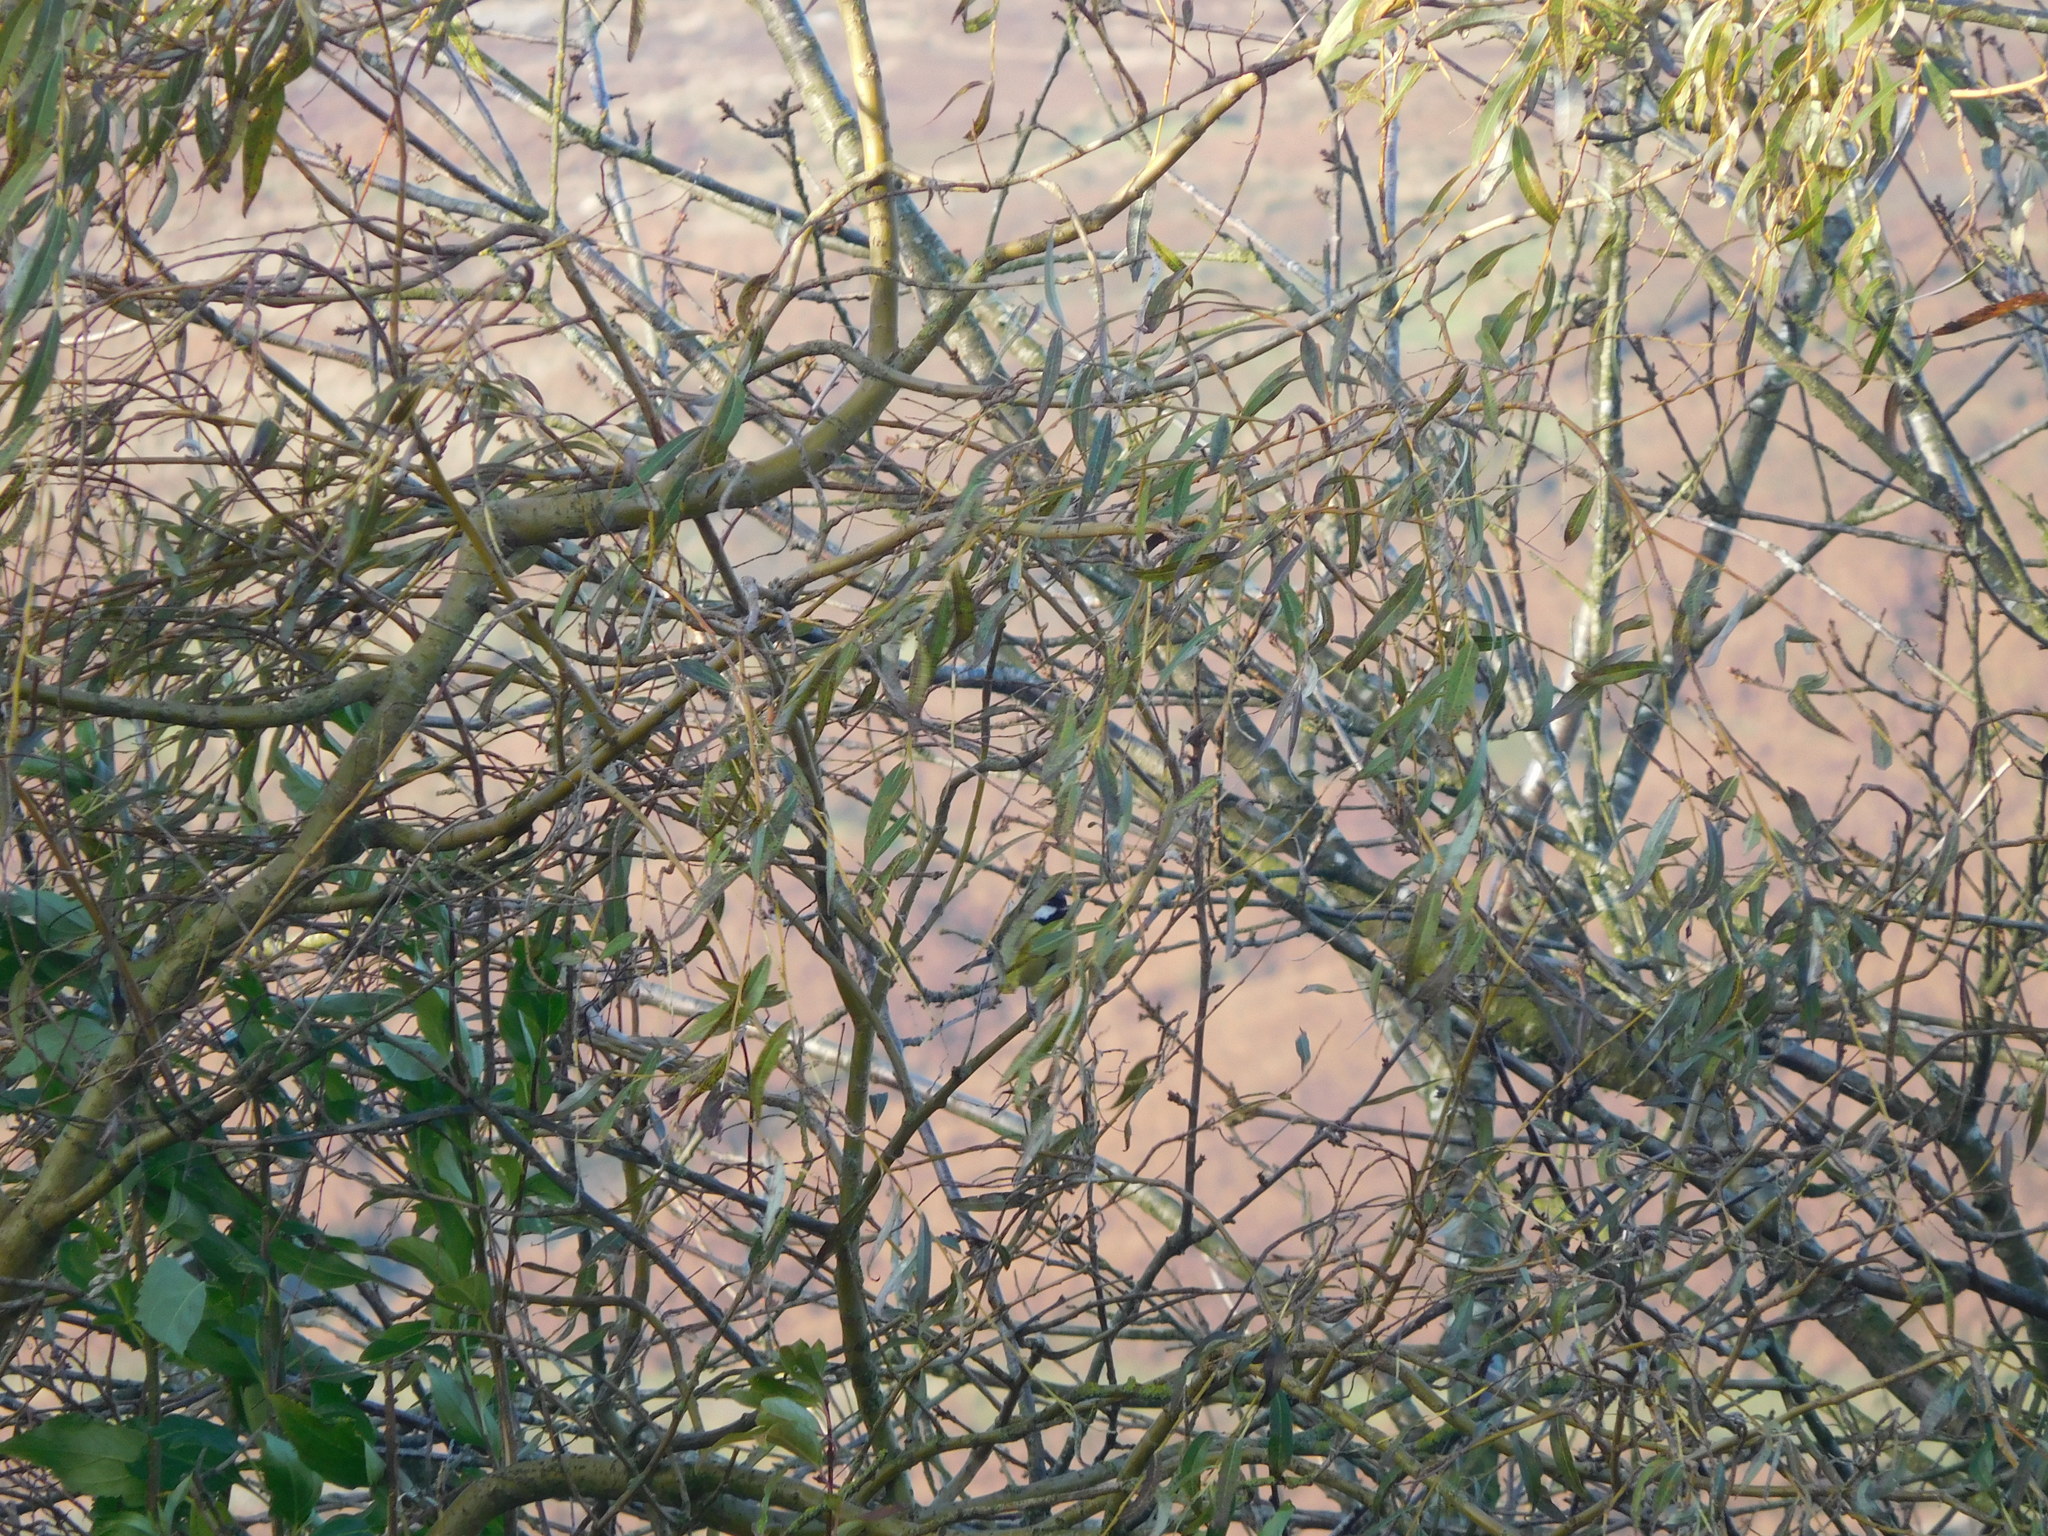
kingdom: Animalia
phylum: Chordata
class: Aves
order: Passeriformes
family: Paridae
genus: Parus
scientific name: Parus major
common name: Great tit
